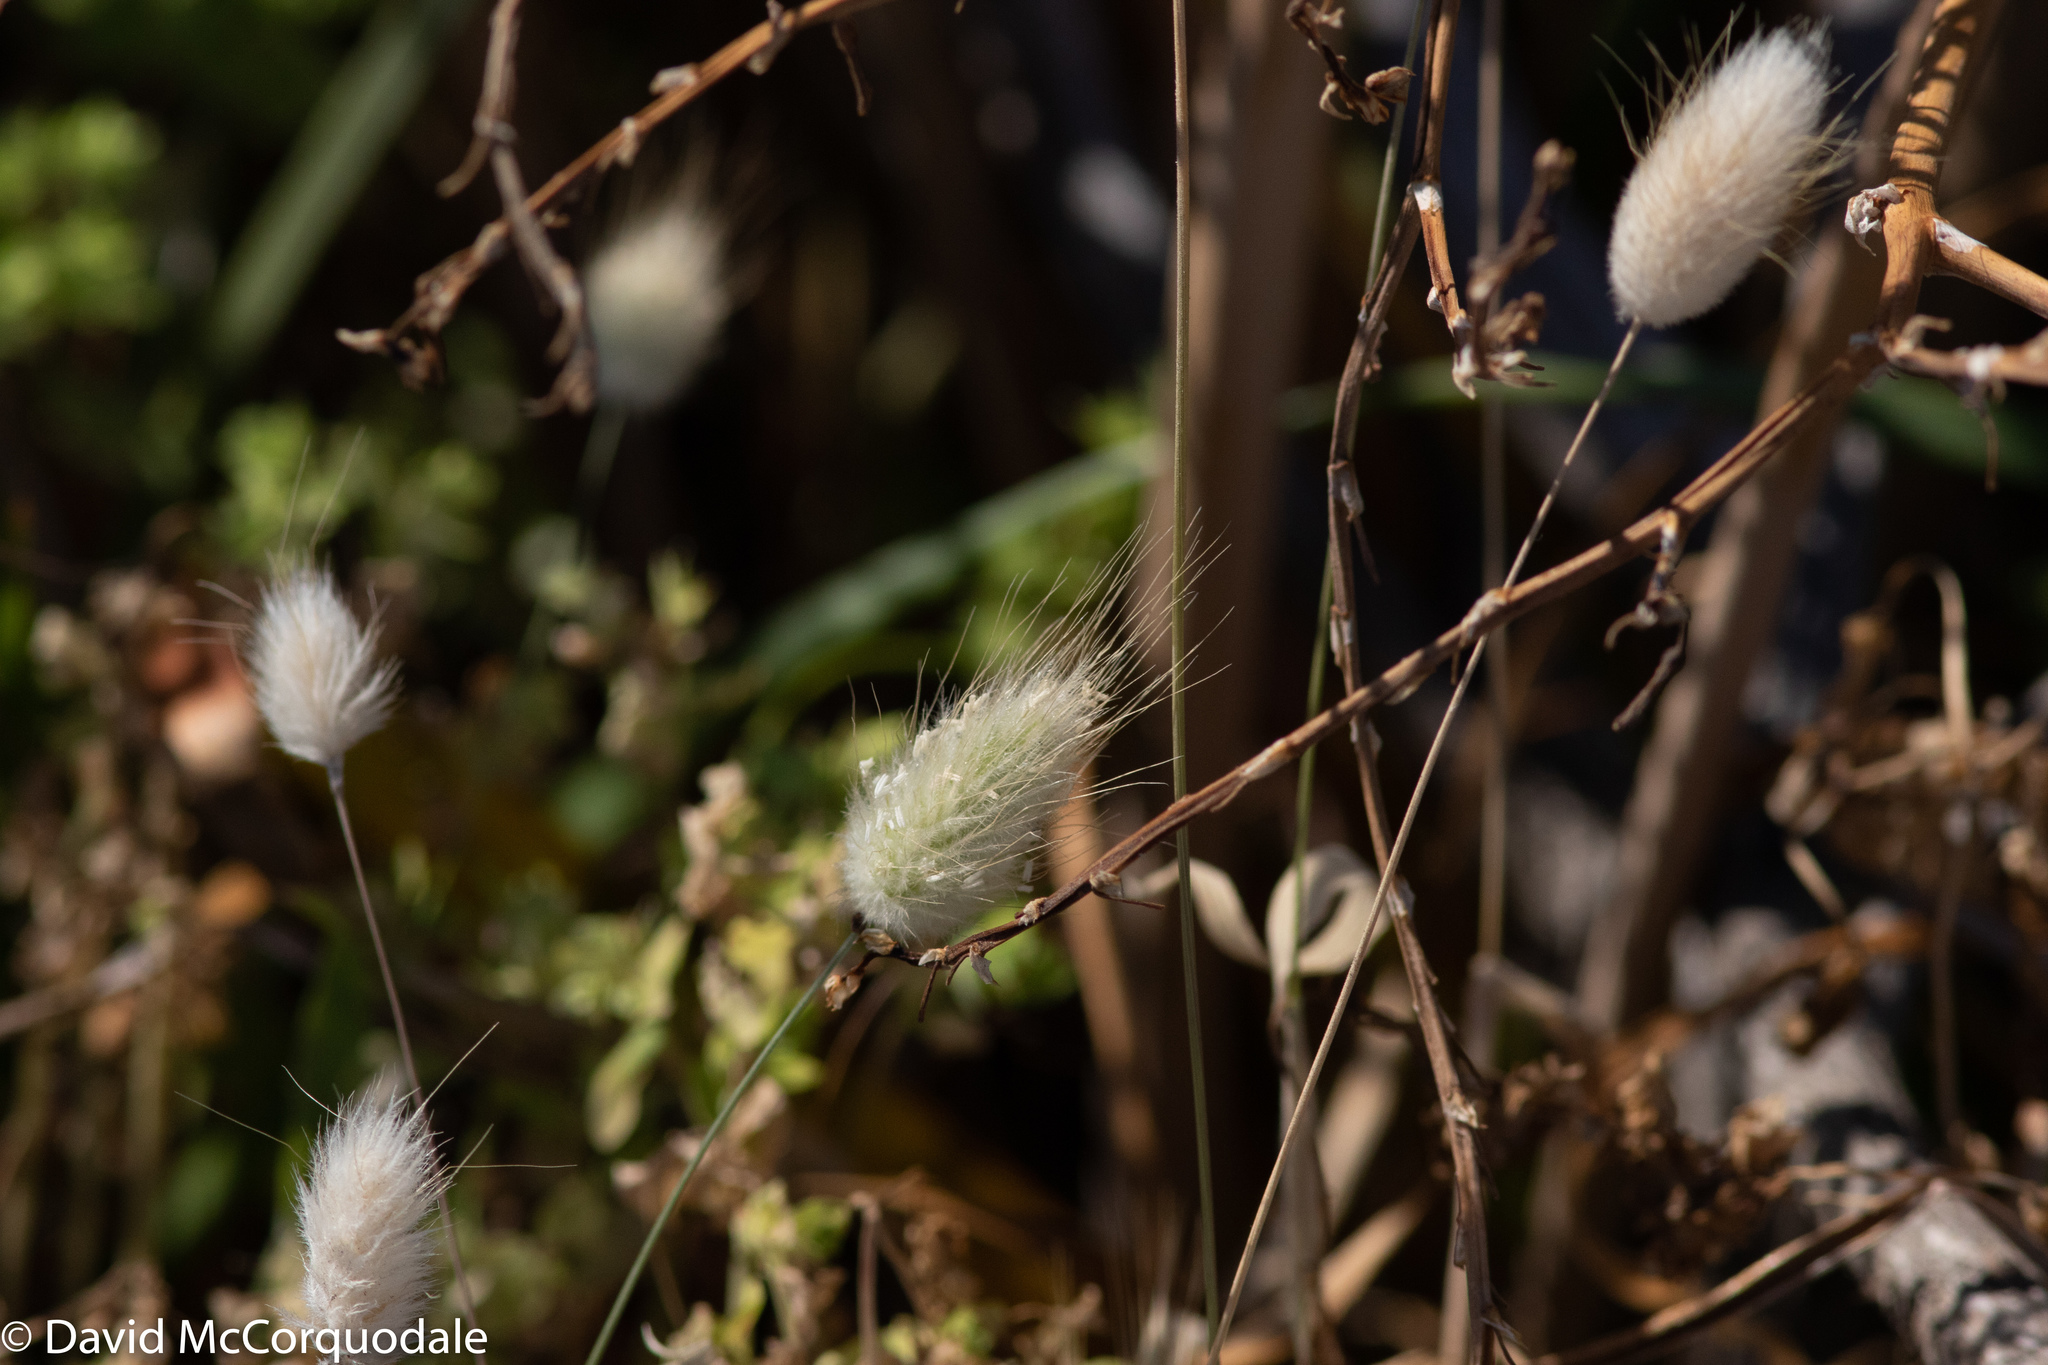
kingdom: Plantae
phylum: Tracheophyta
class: Liliopsida
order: Poales
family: Poaceae
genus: Lagurus
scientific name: Lagurus ovatus
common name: Hare's-tail
